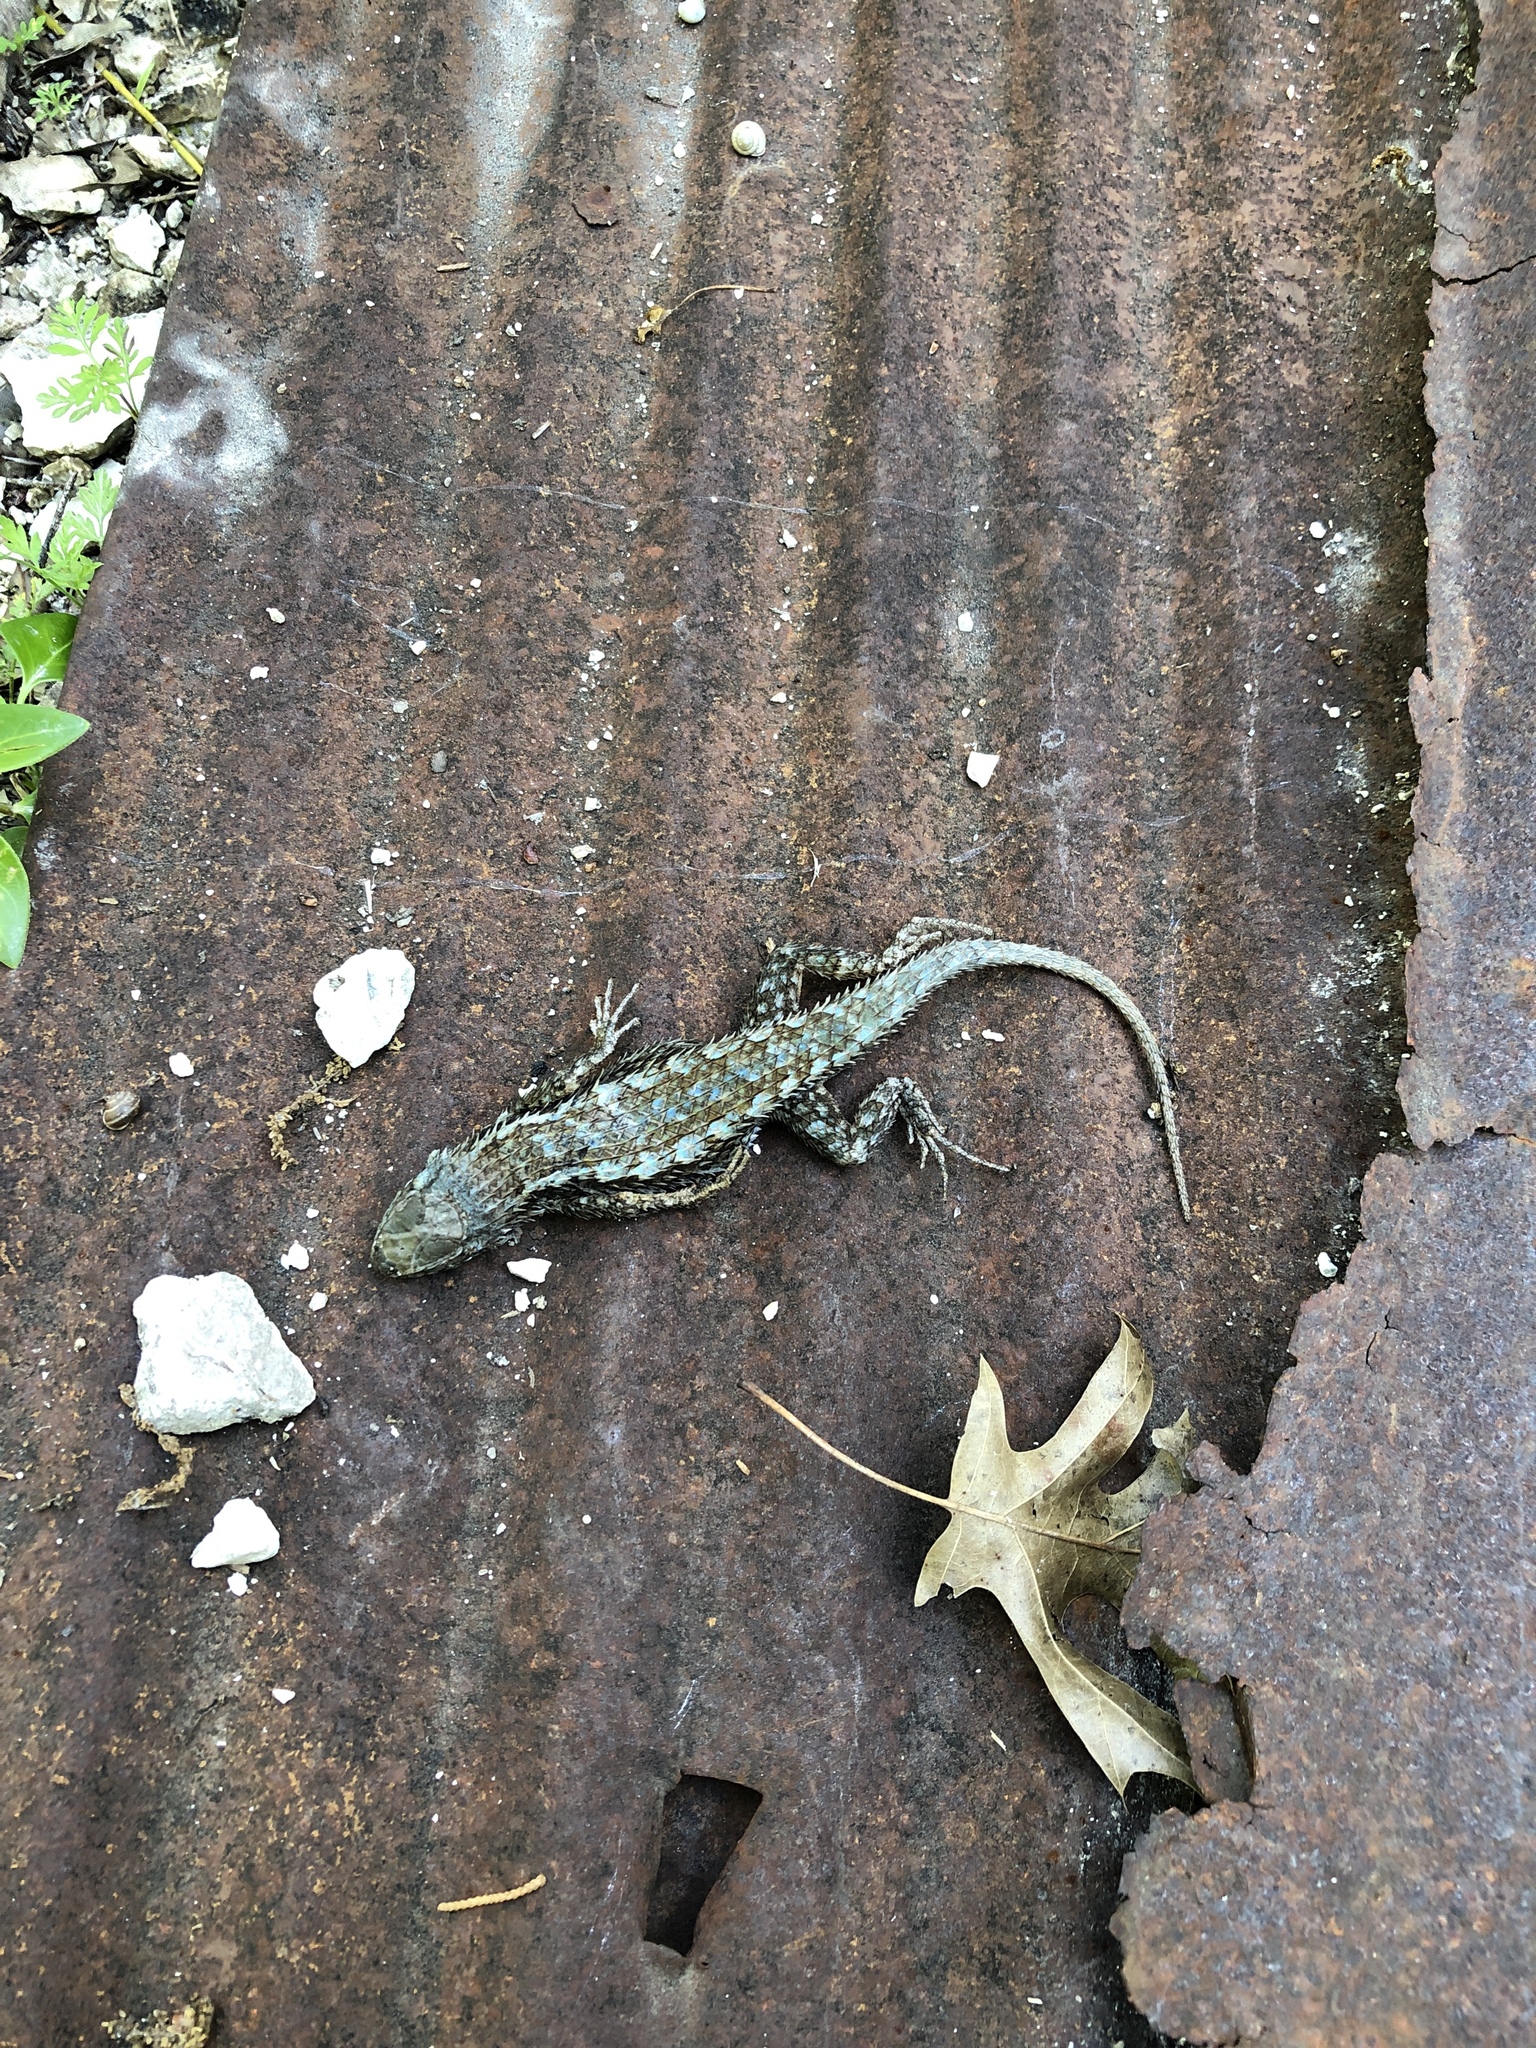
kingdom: Animalia
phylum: Chordata
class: Squamata
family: Phrynosomatidae
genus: Sceloporus
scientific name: Sceloporus olivaceus
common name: Texas spiny lizard
